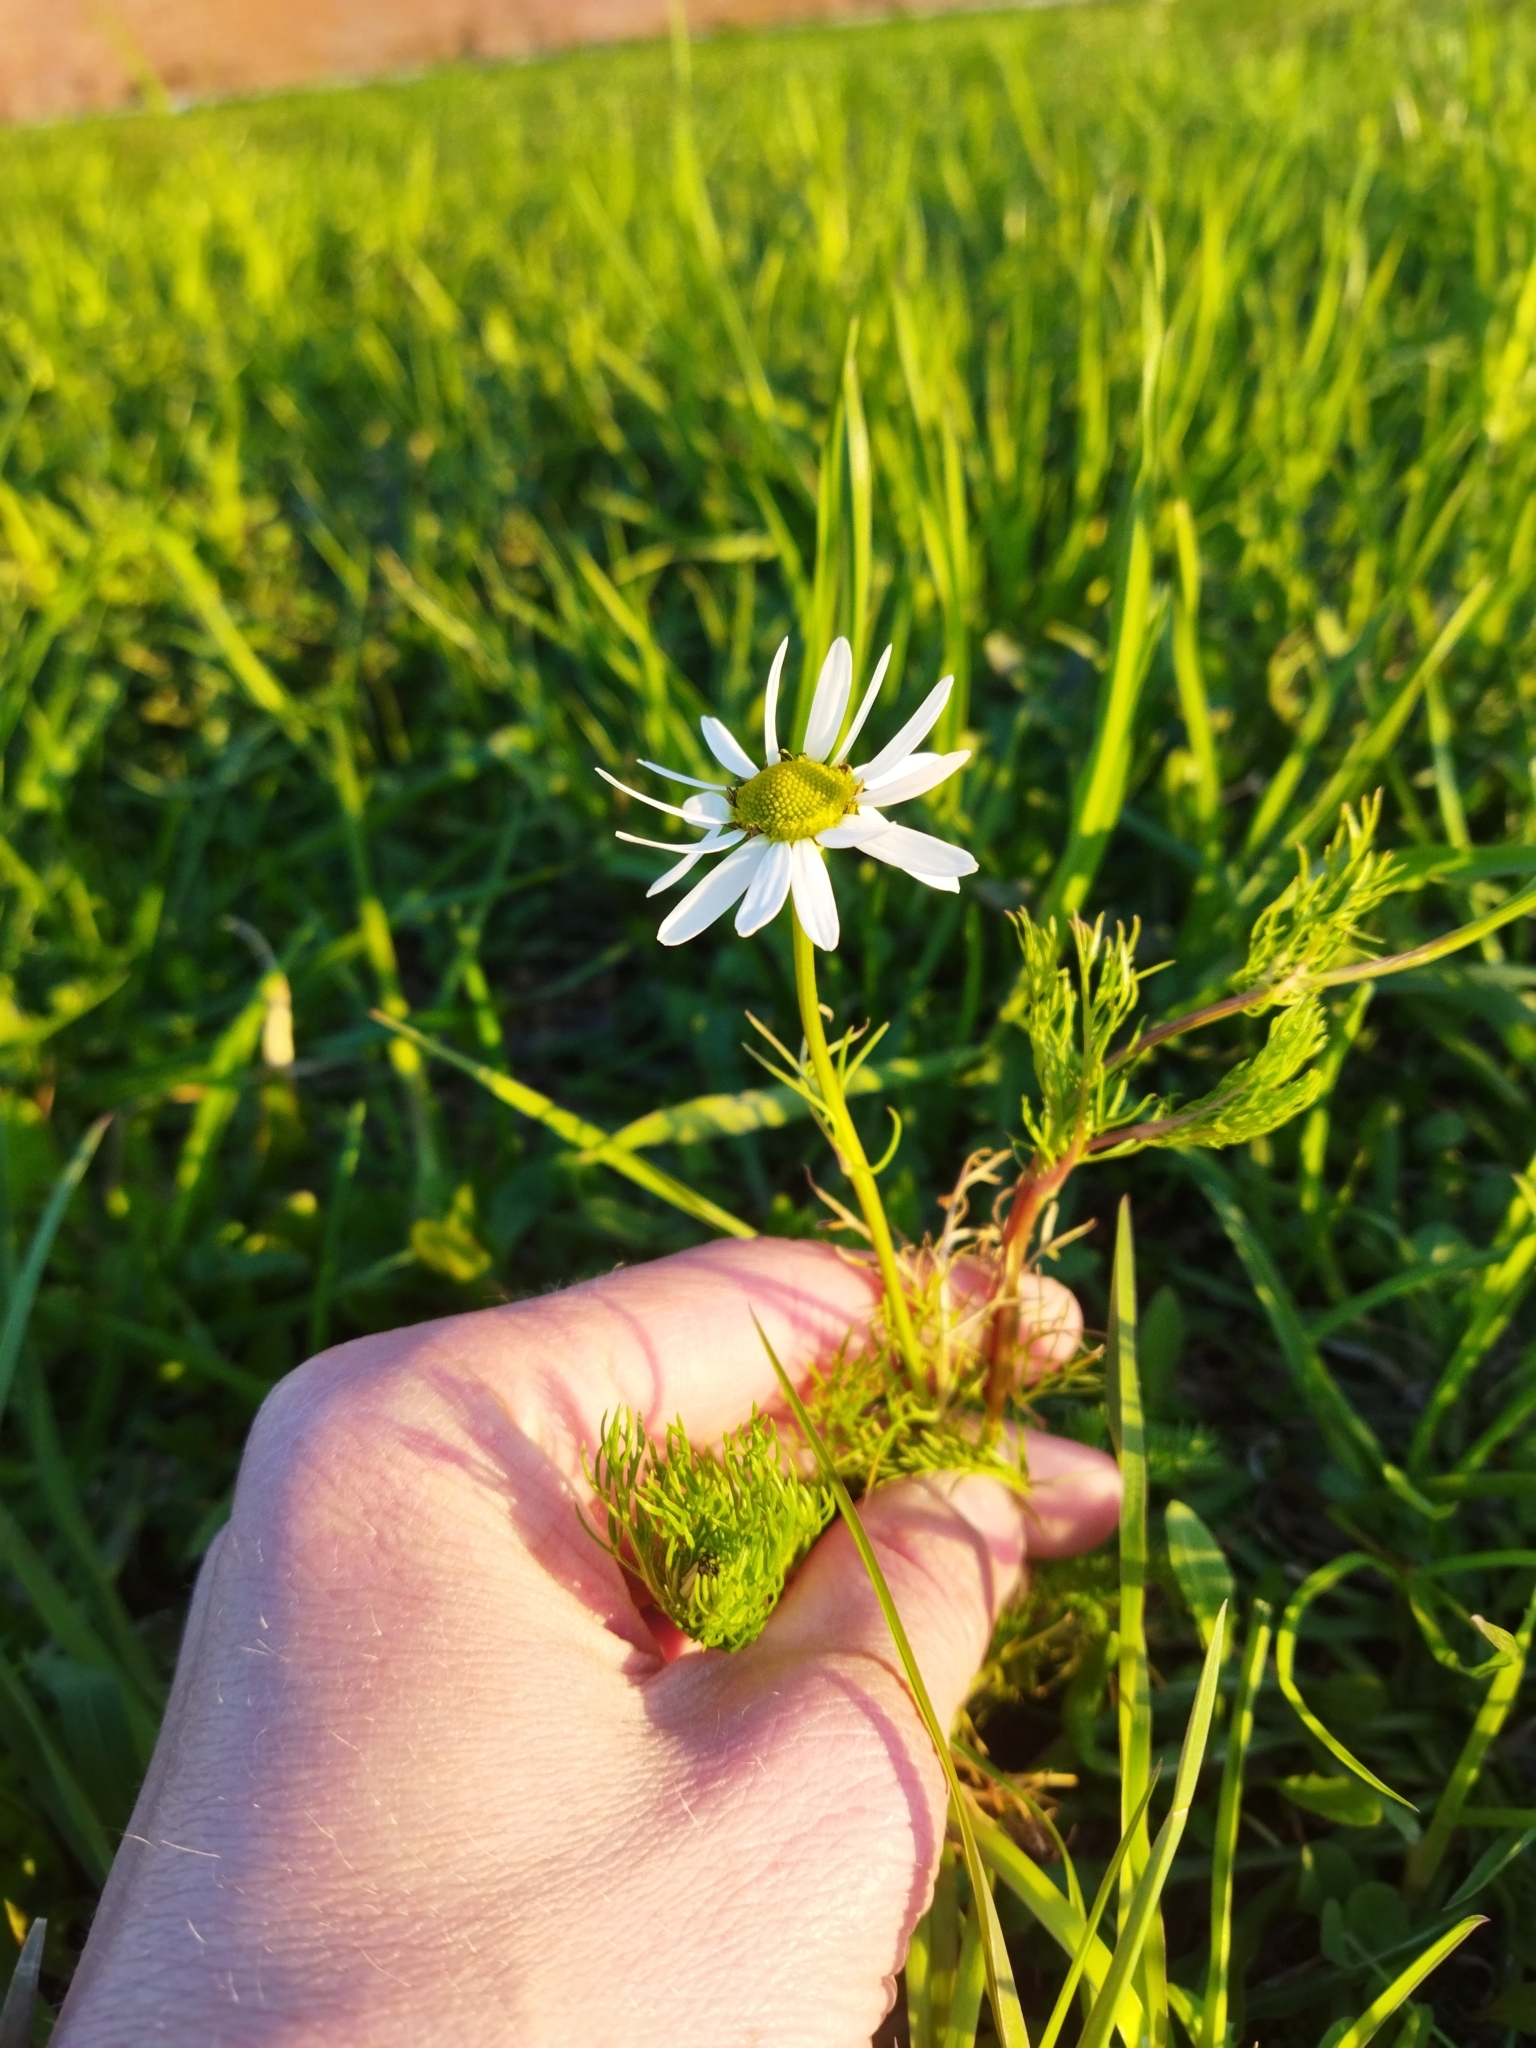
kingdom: Plantae
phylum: Tracheophyta
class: Magnoliopsida
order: Asterales
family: Asteraceae
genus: Tripleurospermum
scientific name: Tripleurospermum inodorum
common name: Scentless mayweed
